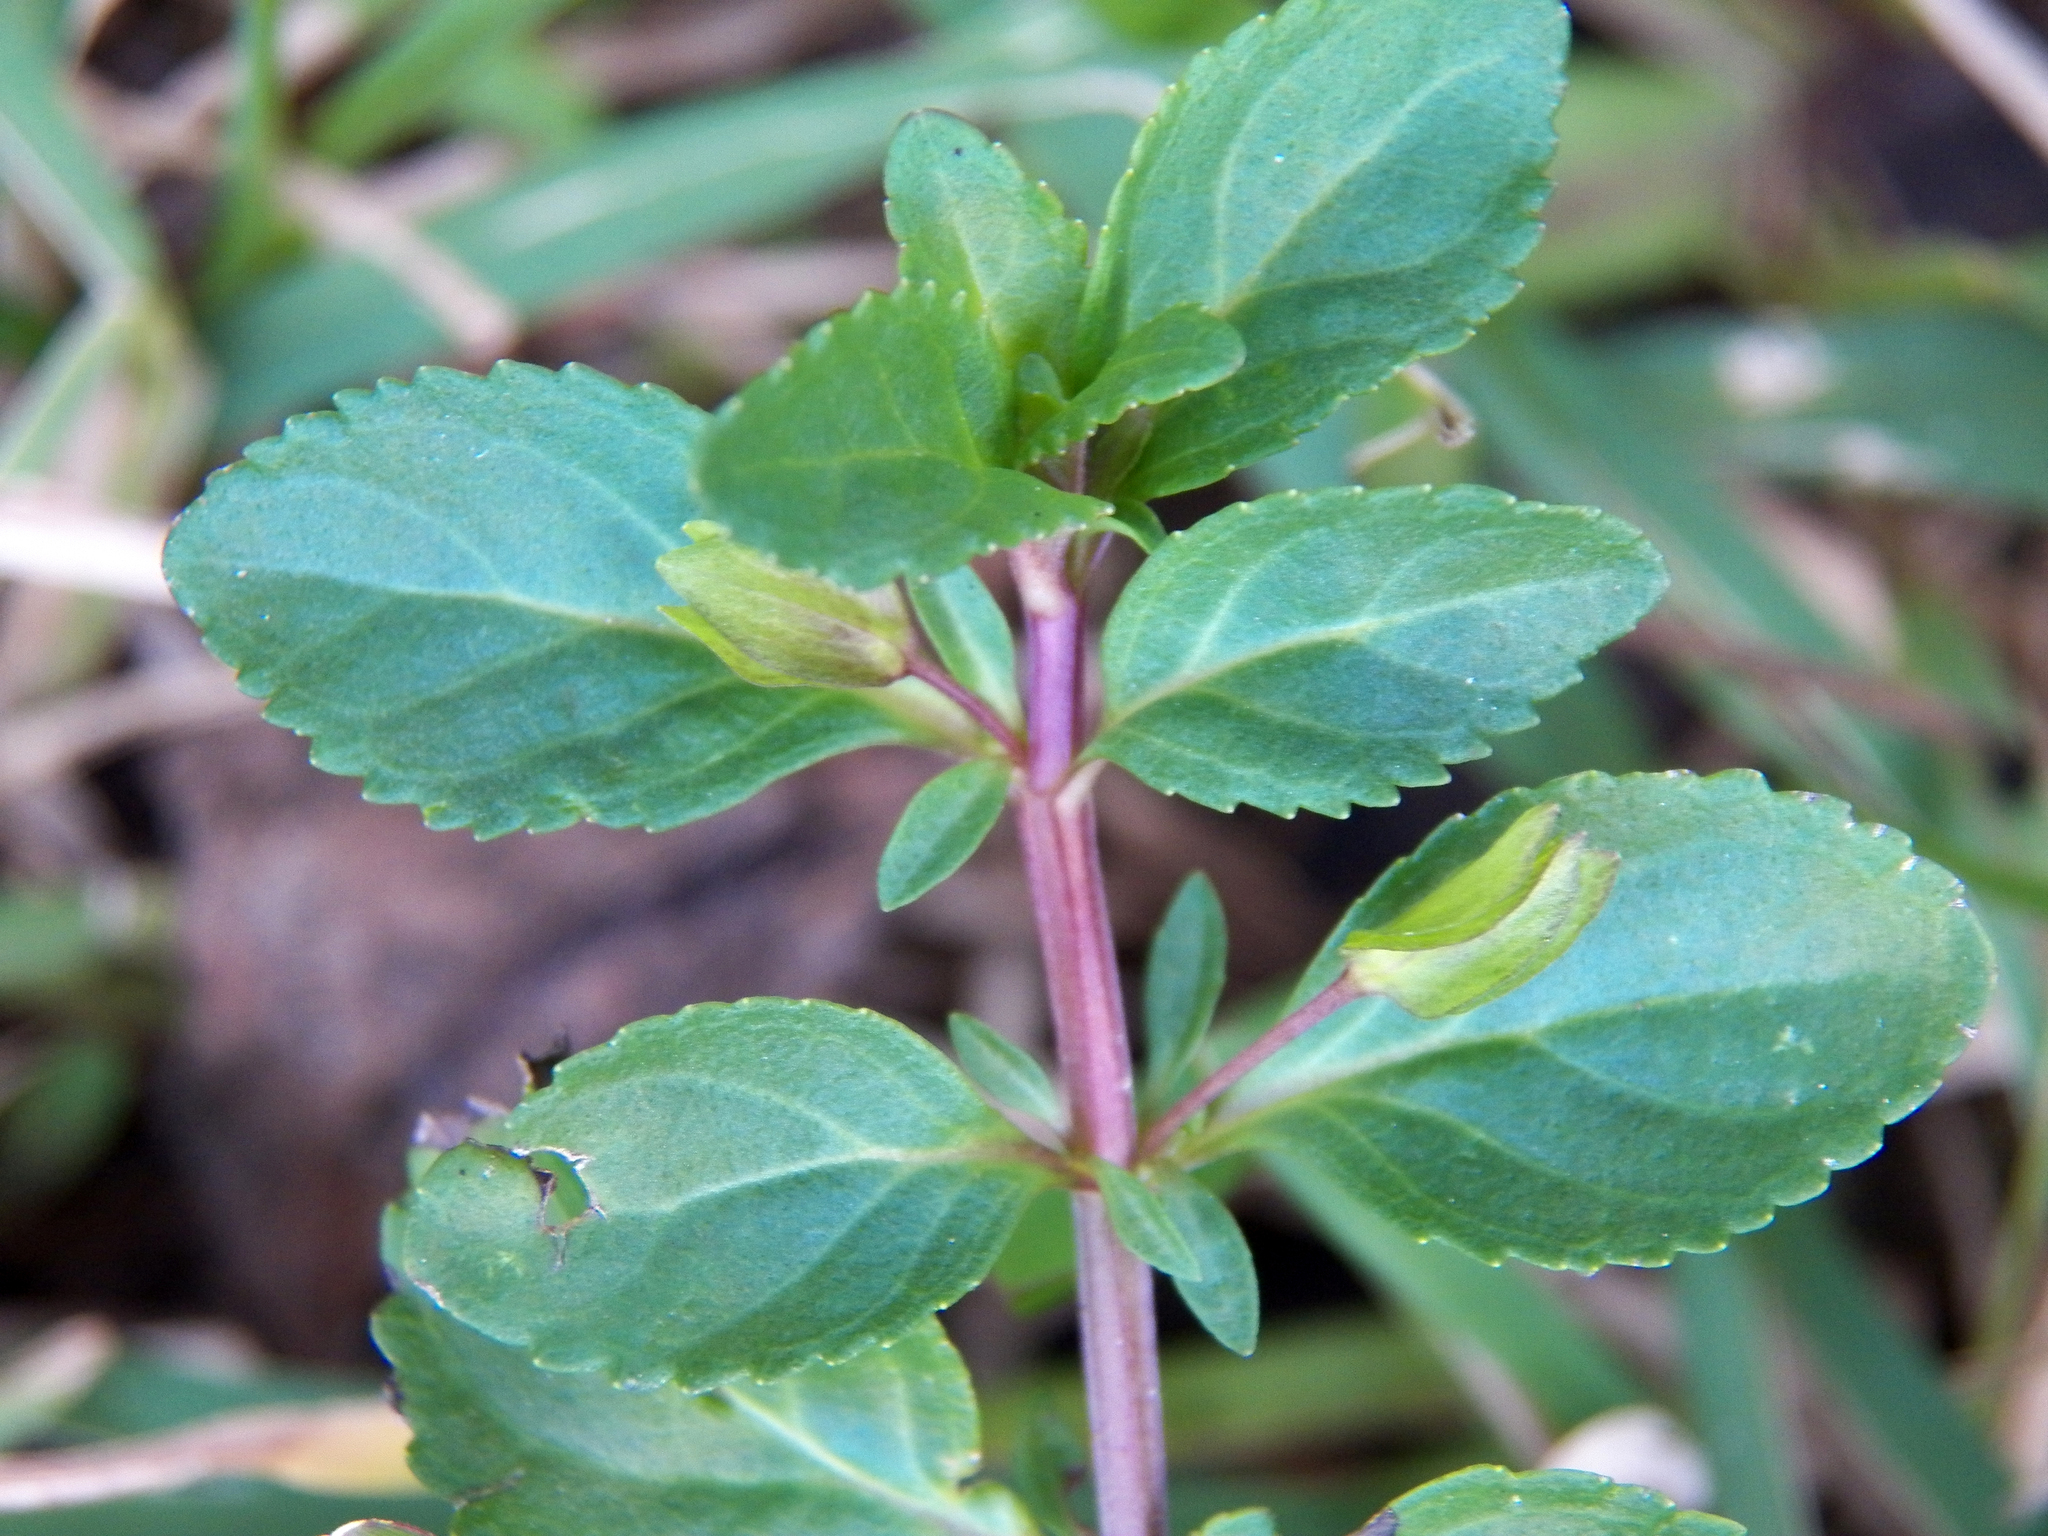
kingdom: Plantae
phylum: Tracheophyta
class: Magnoliopsida
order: Lamiales
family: Plantaginaceae
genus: Mecardonia
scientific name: Mecardonia procumbens
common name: Baby jump-up
